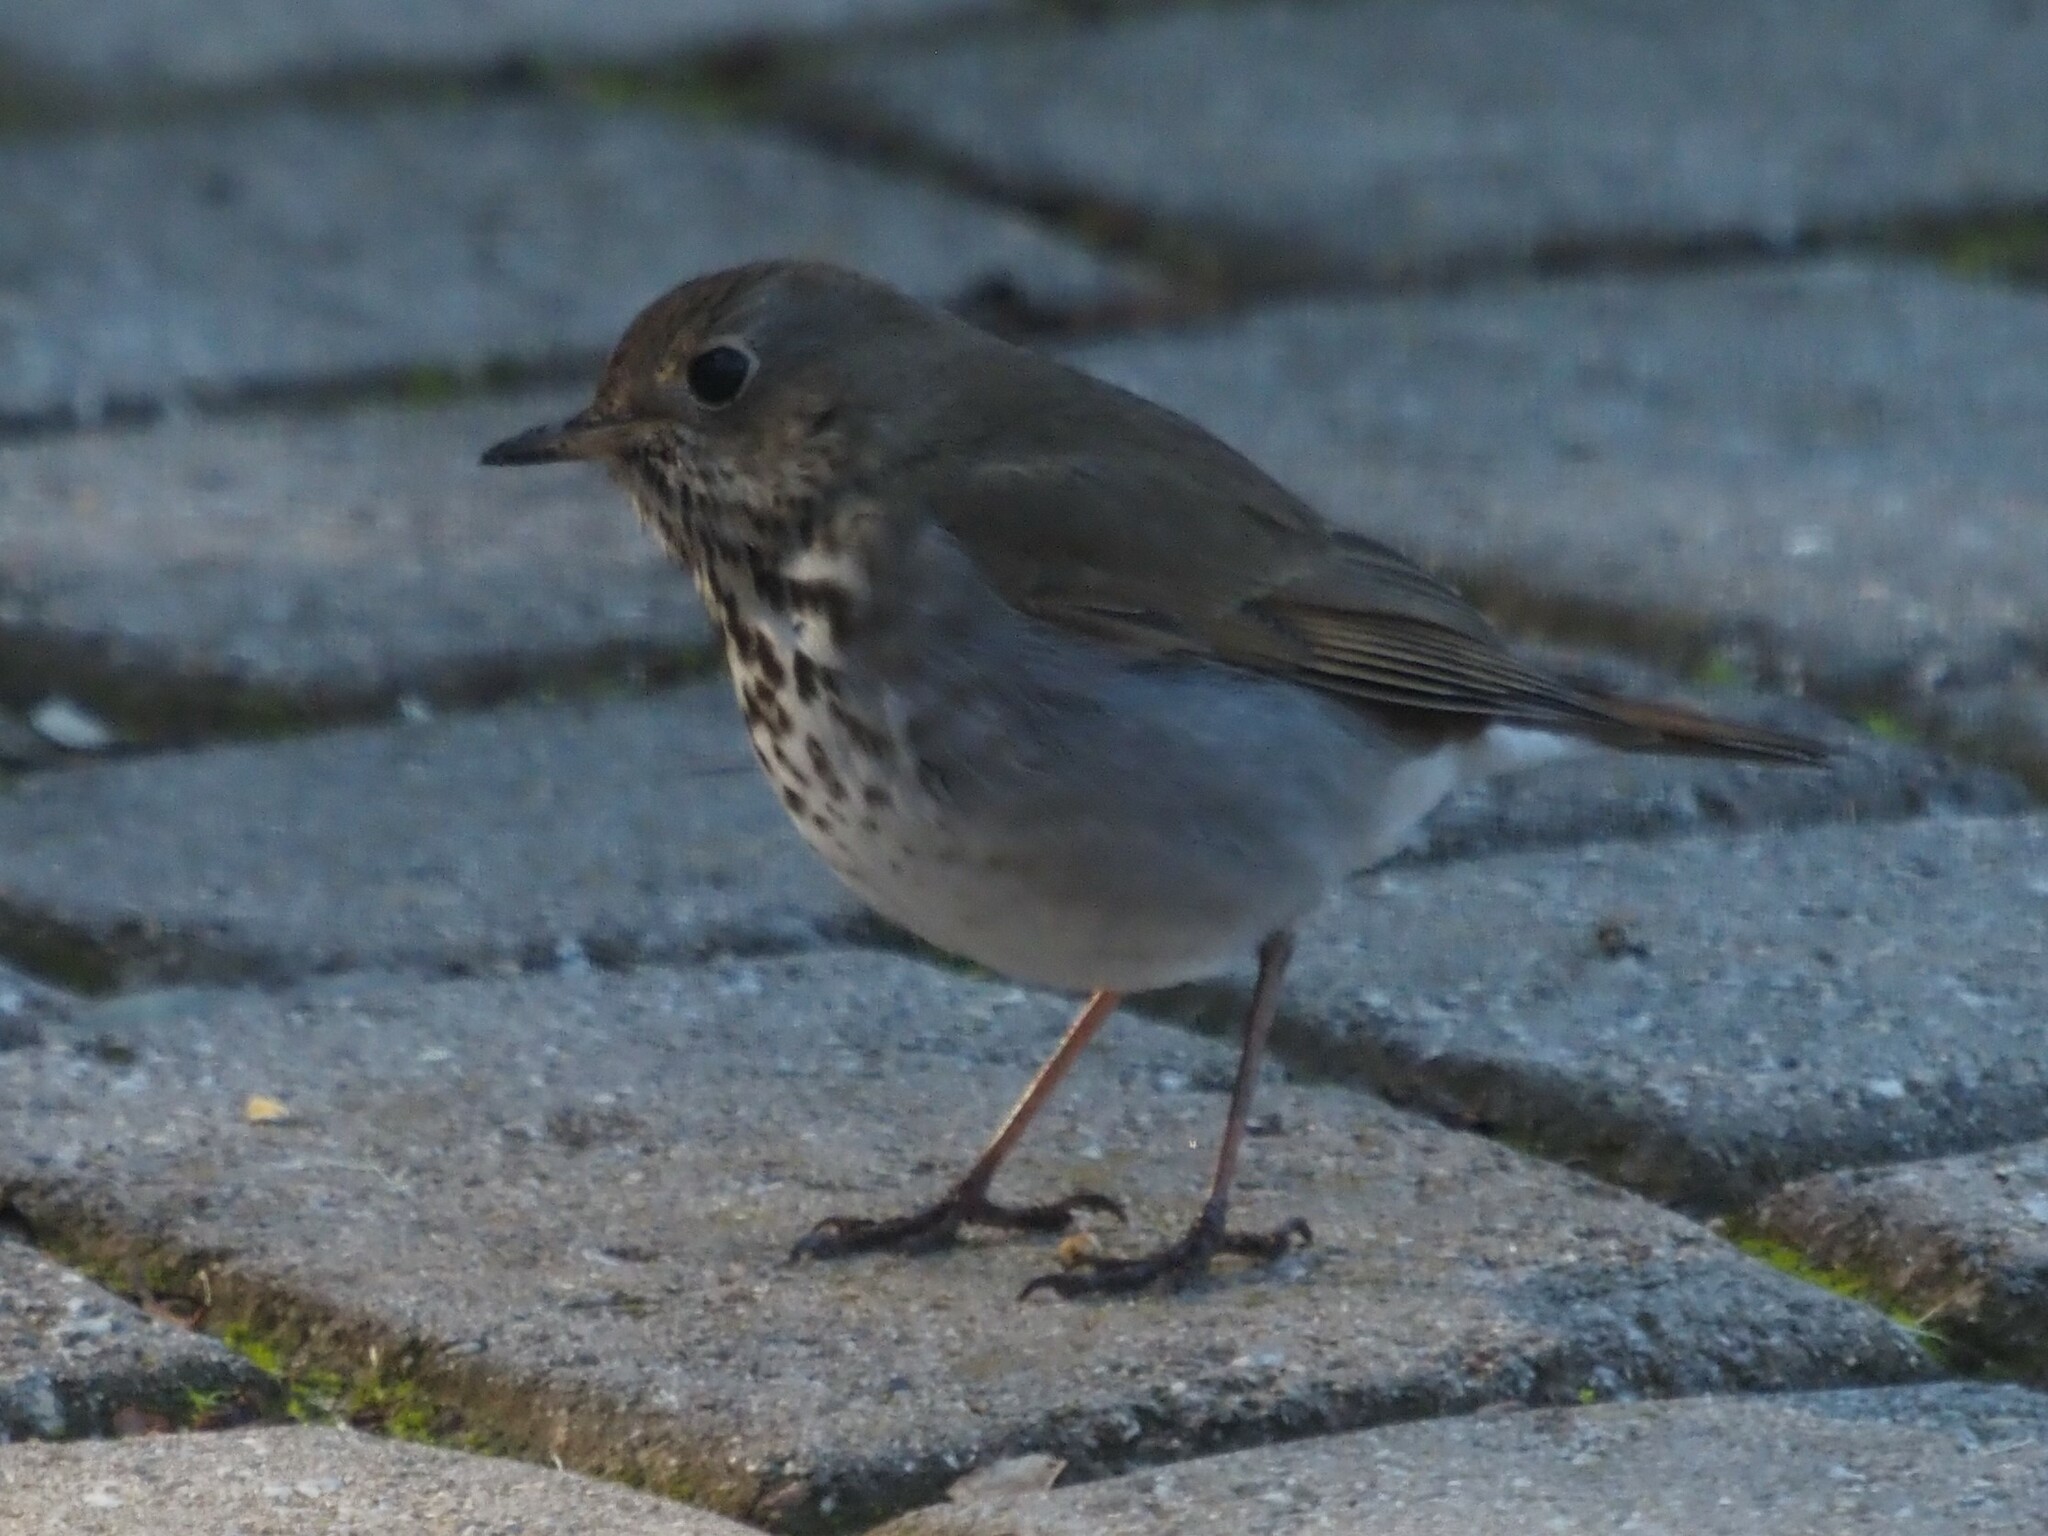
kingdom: Animalia
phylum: Chordata
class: Aves
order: Passeriformes
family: Turdidae
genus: Catharus
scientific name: Catharus guttatus
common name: Hermit thrush
